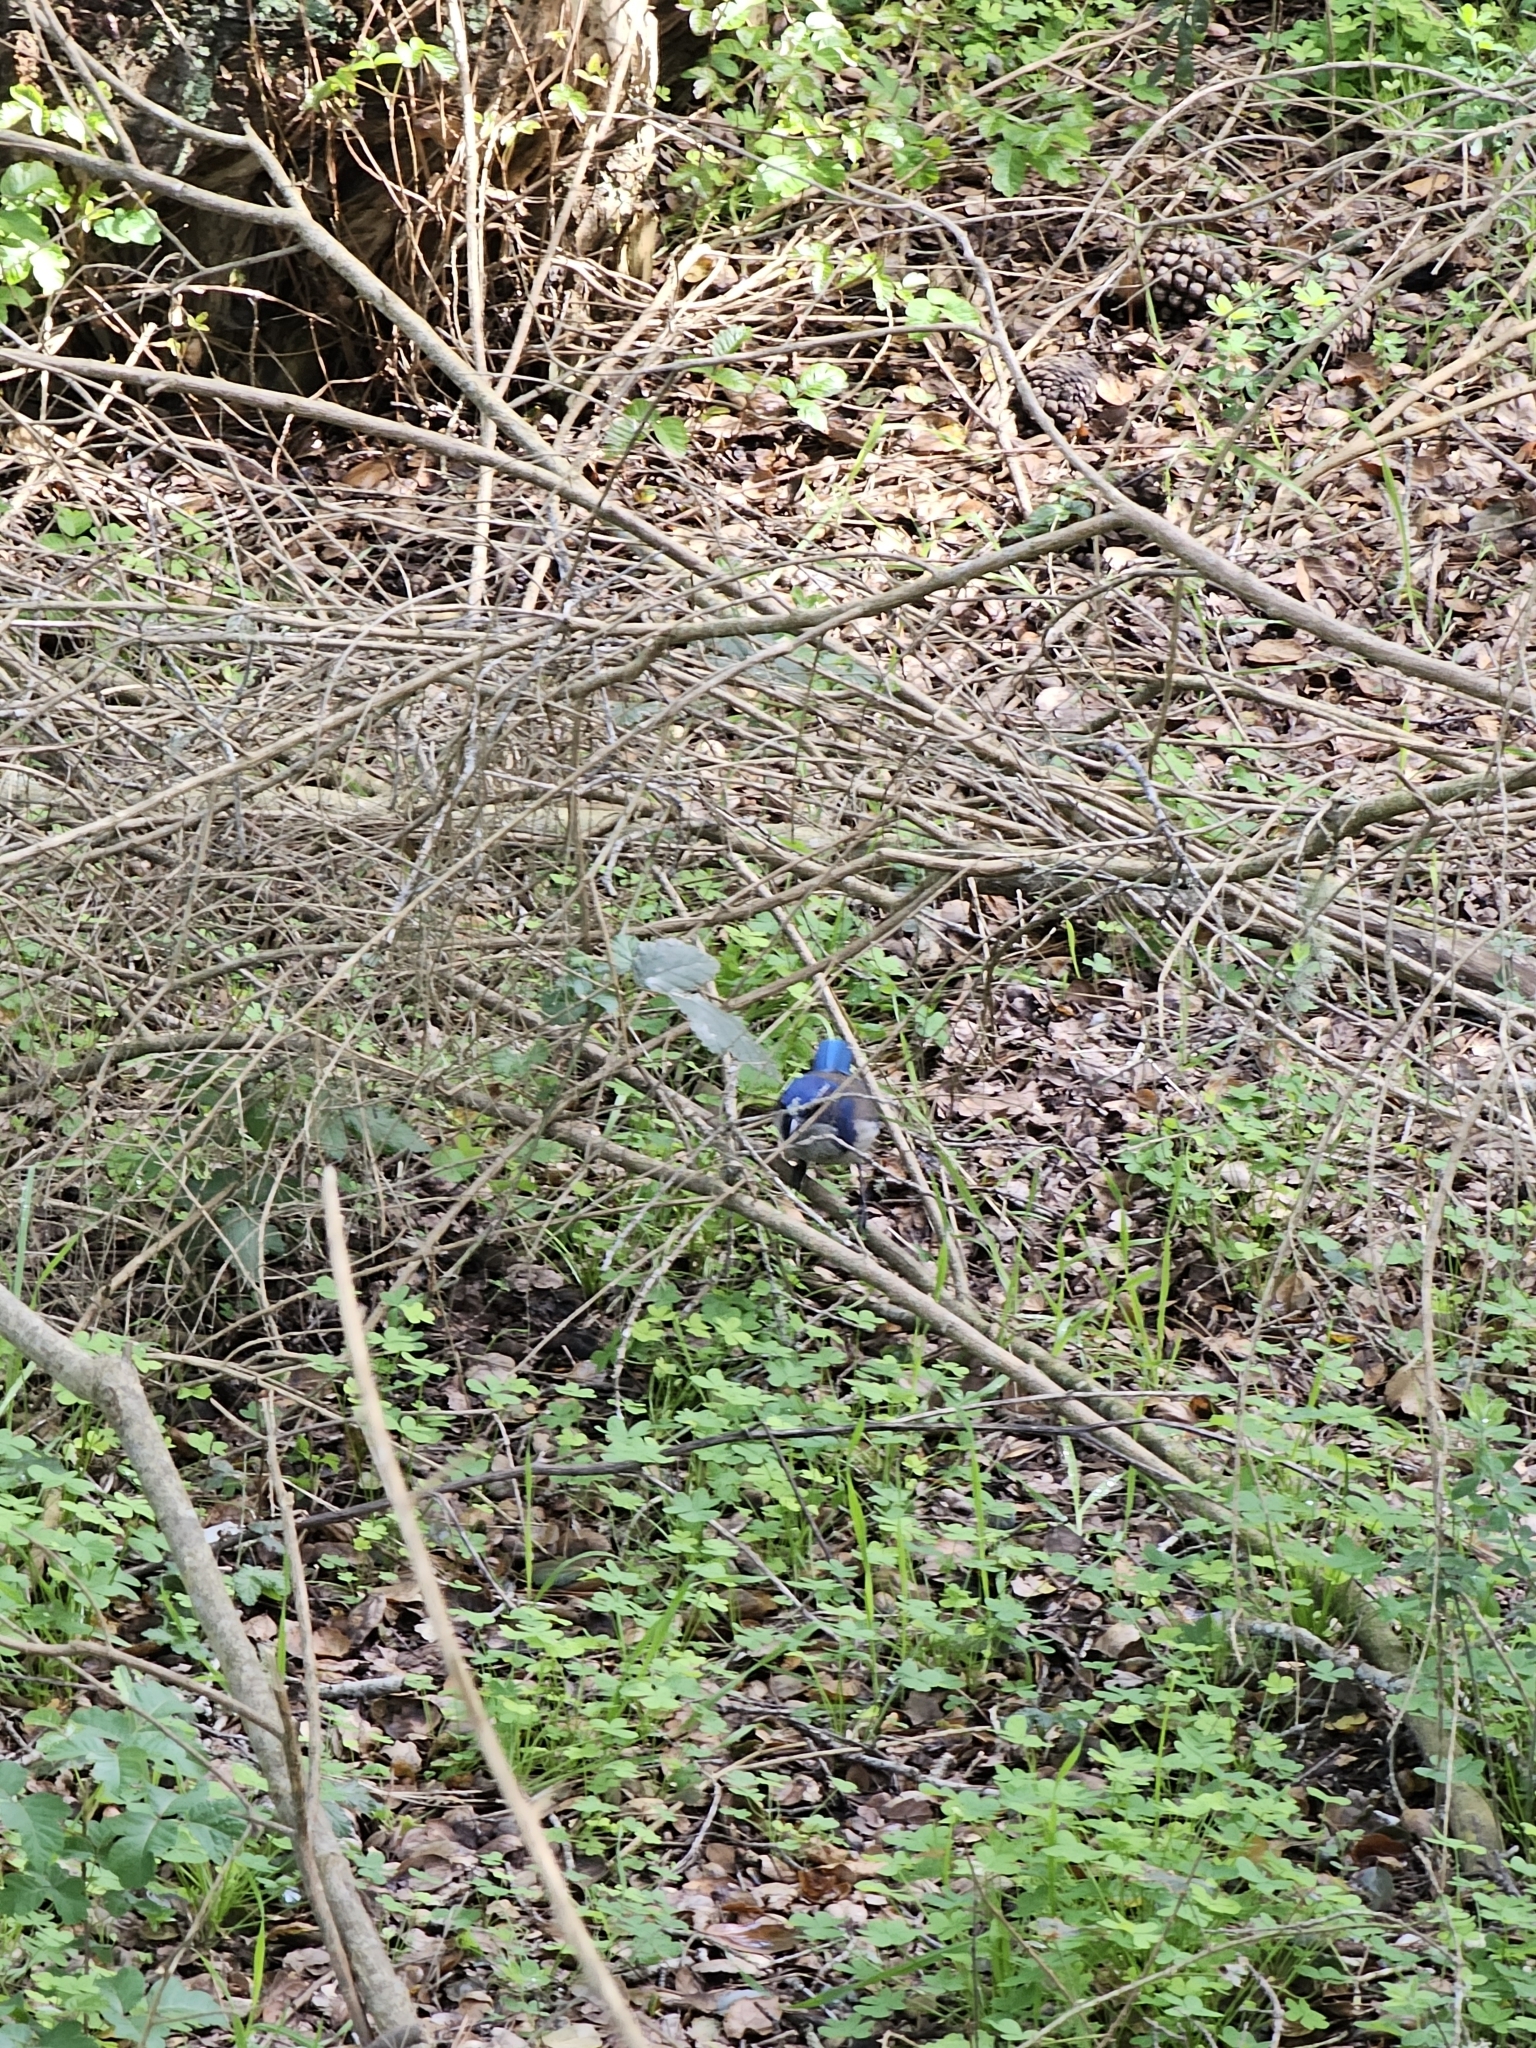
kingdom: Animalia
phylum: Chordata
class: Aves
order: Passeriformes
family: Corvidae
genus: Aphelocoma
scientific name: Aphelocoma californica
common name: California scrub-jay
